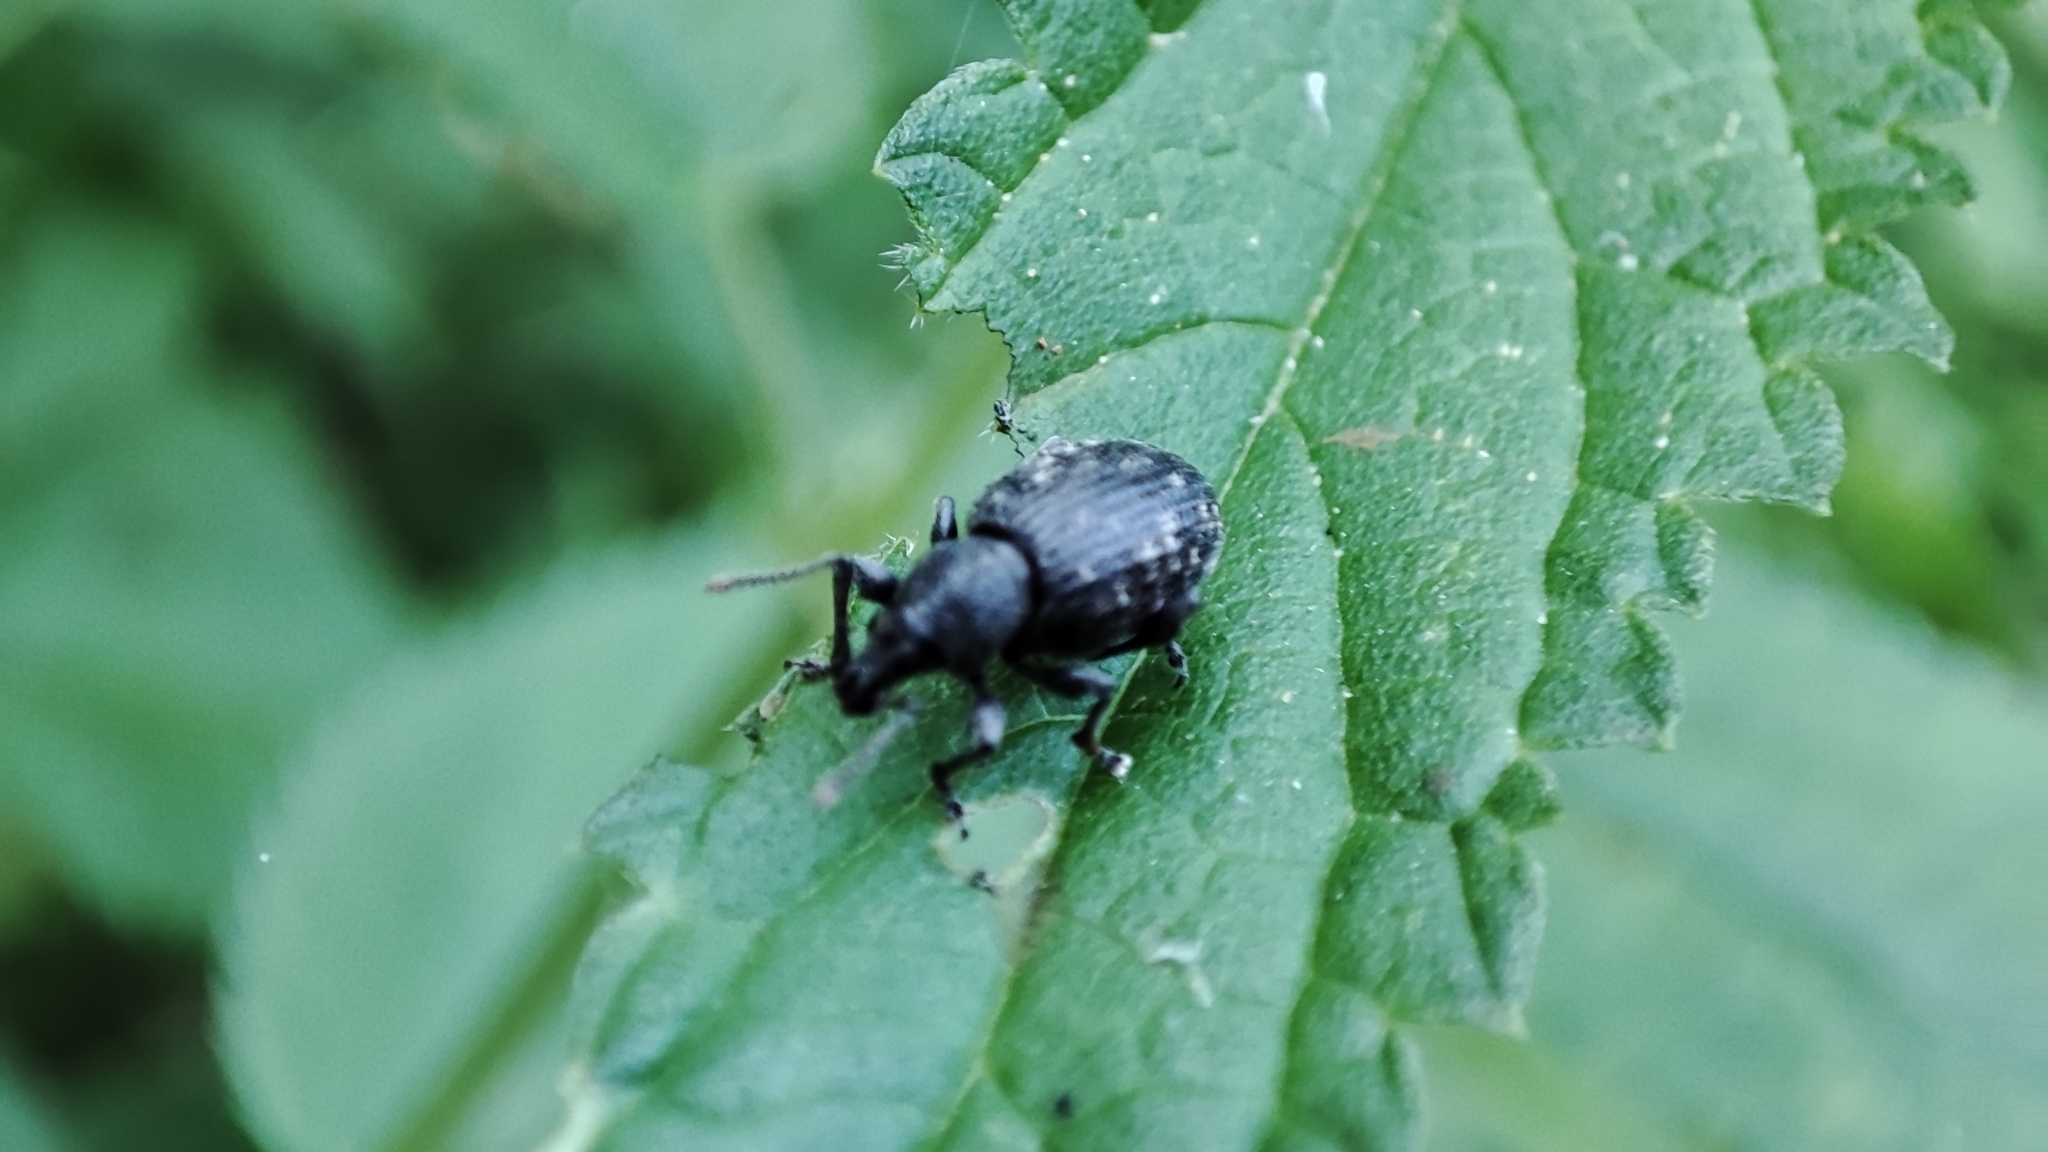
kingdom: Animalia
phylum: Arthropoda
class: Insecta
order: Coleoptera
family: Curculionidae
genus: Otiorhynchus
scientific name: Otiorhynchus tristis
